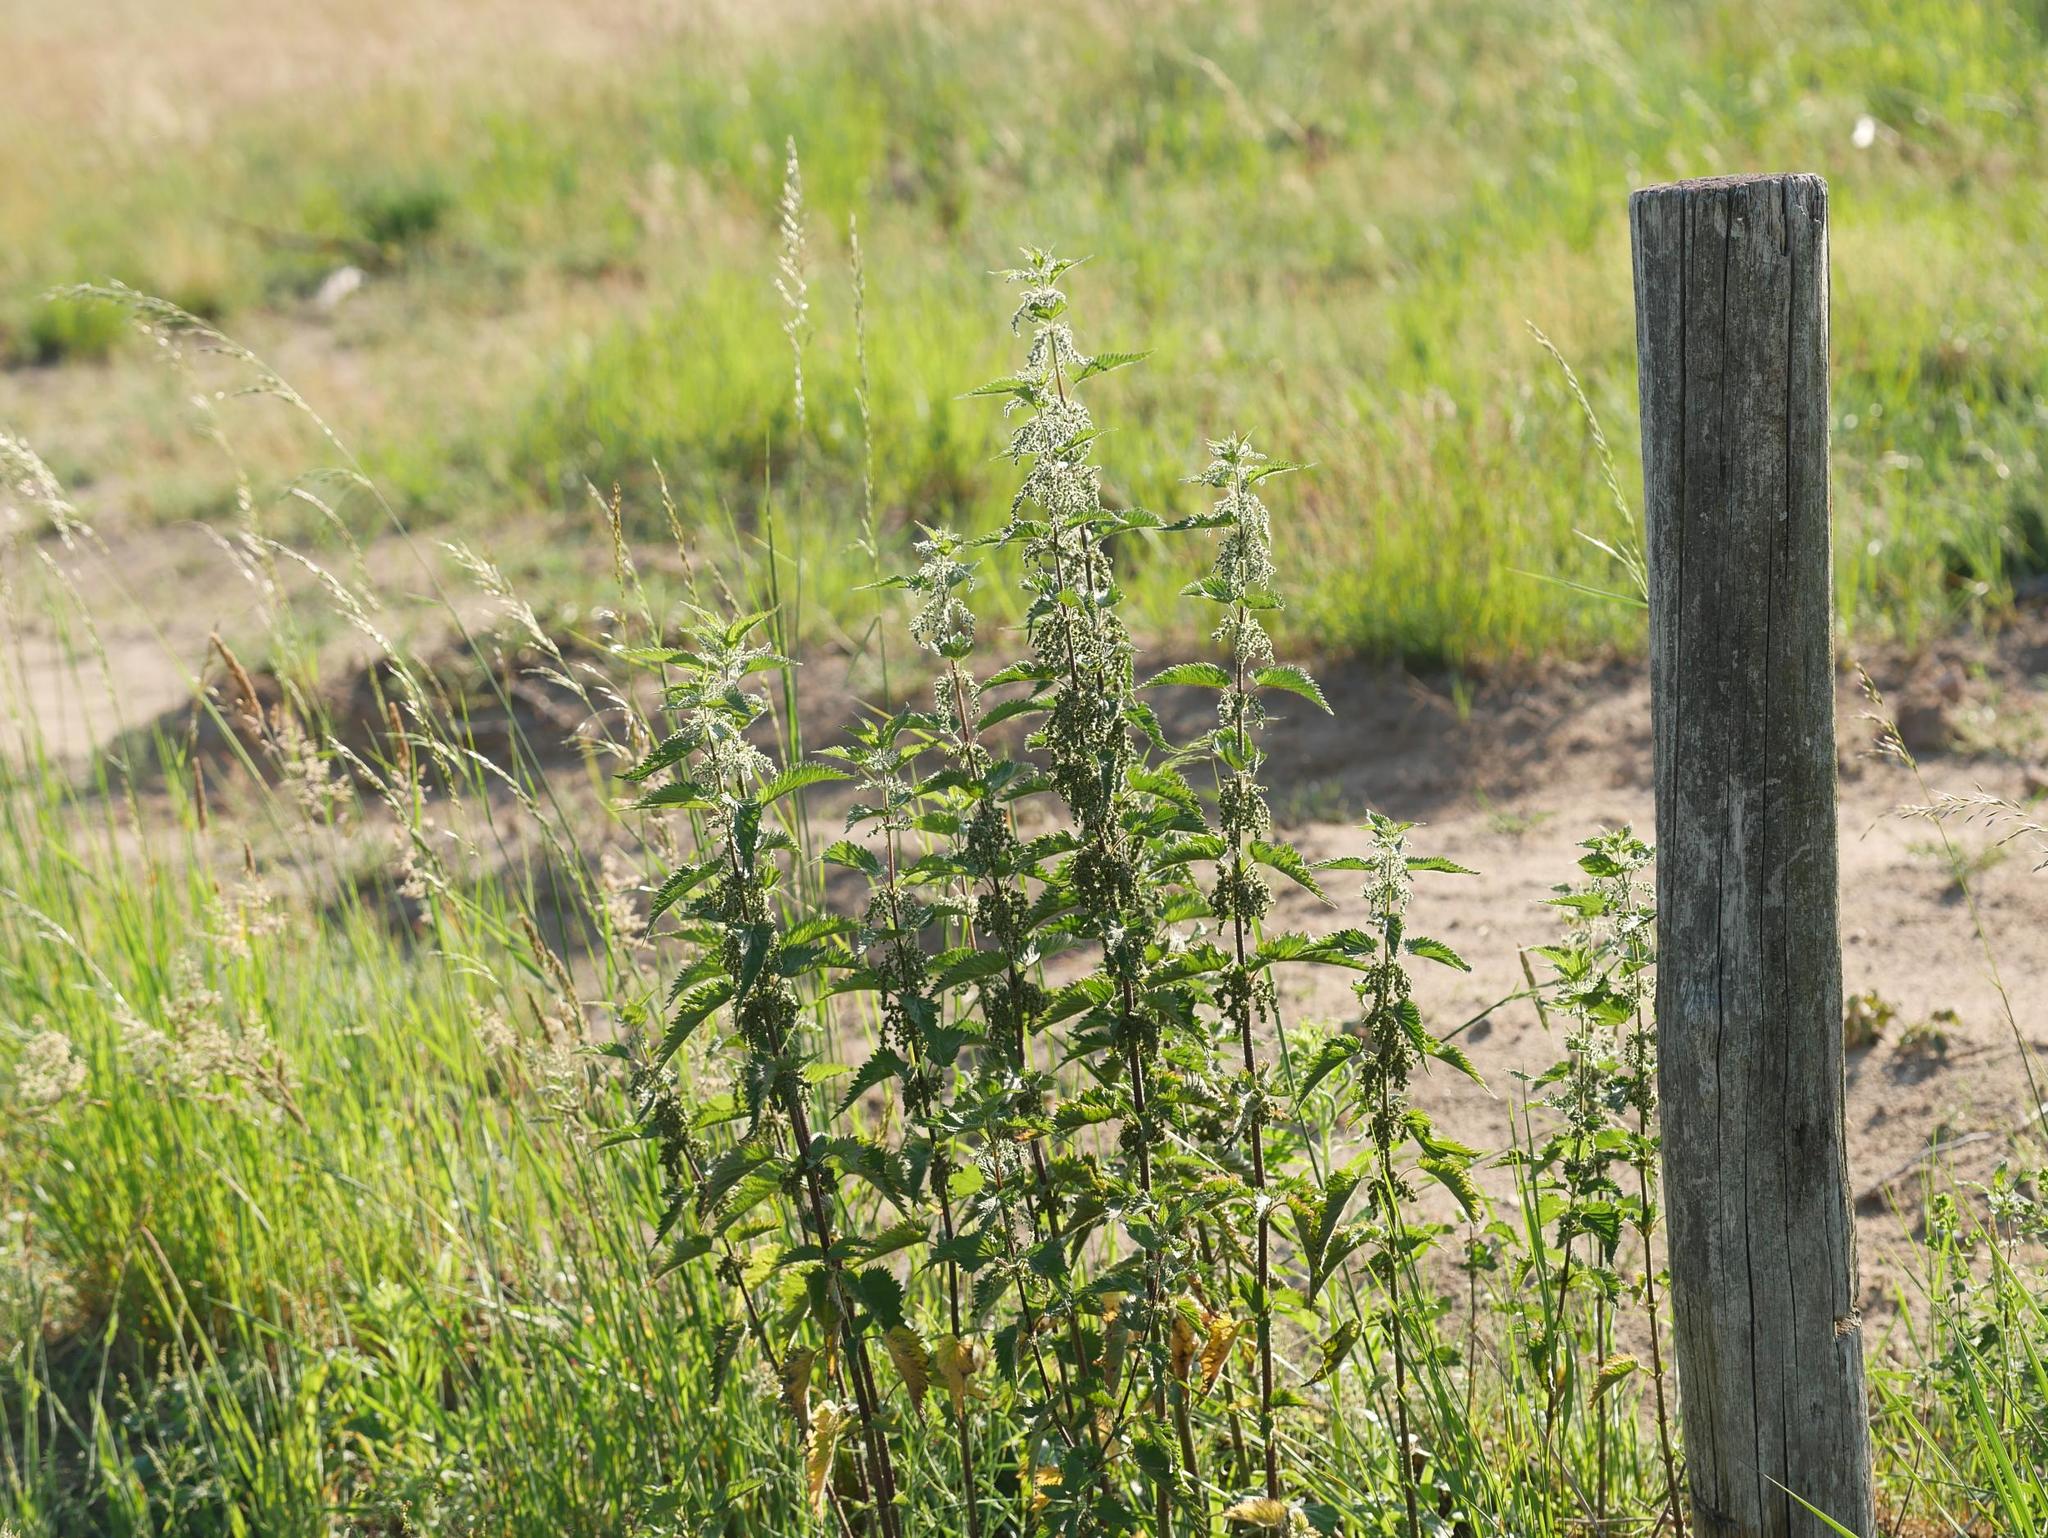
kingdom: Plantae
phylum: Tracheophyta
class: Magnoliopsida
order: Rosales
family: Urticaceae
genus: Urtica
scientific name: Urtica dioica
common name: Common nettle
